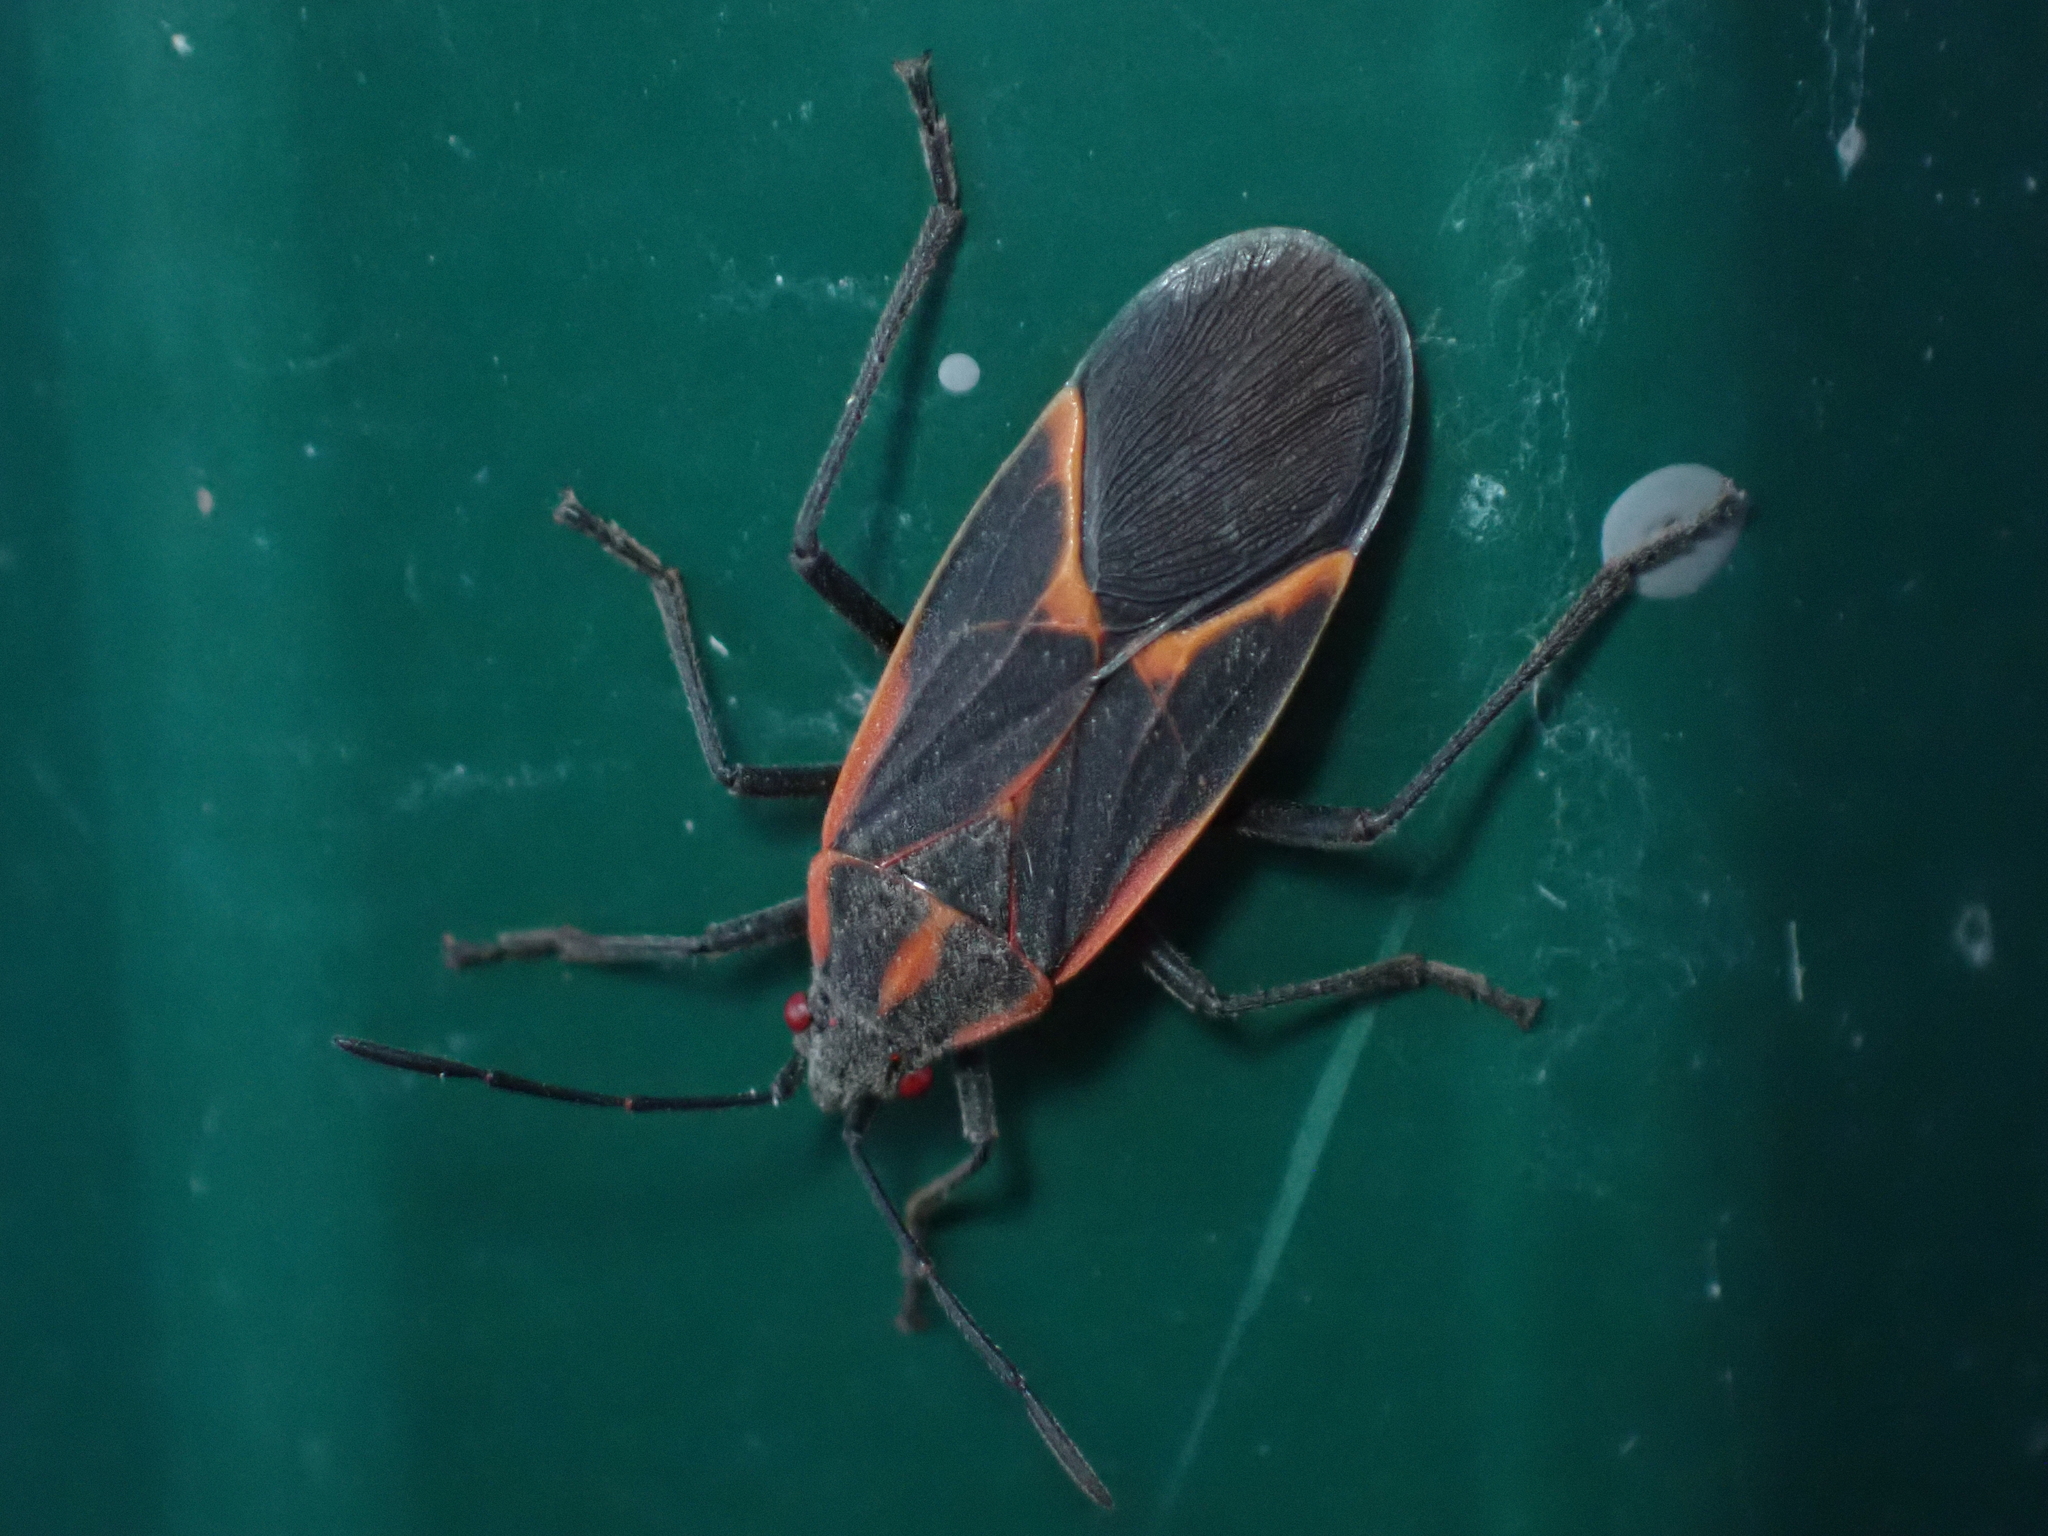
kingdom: Animalia
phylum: Arthropoda
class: Insecta
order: Hemiptera
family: Rhopalidae
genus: Boisea
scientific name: Boisea trivittata
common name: Boxelder bug
